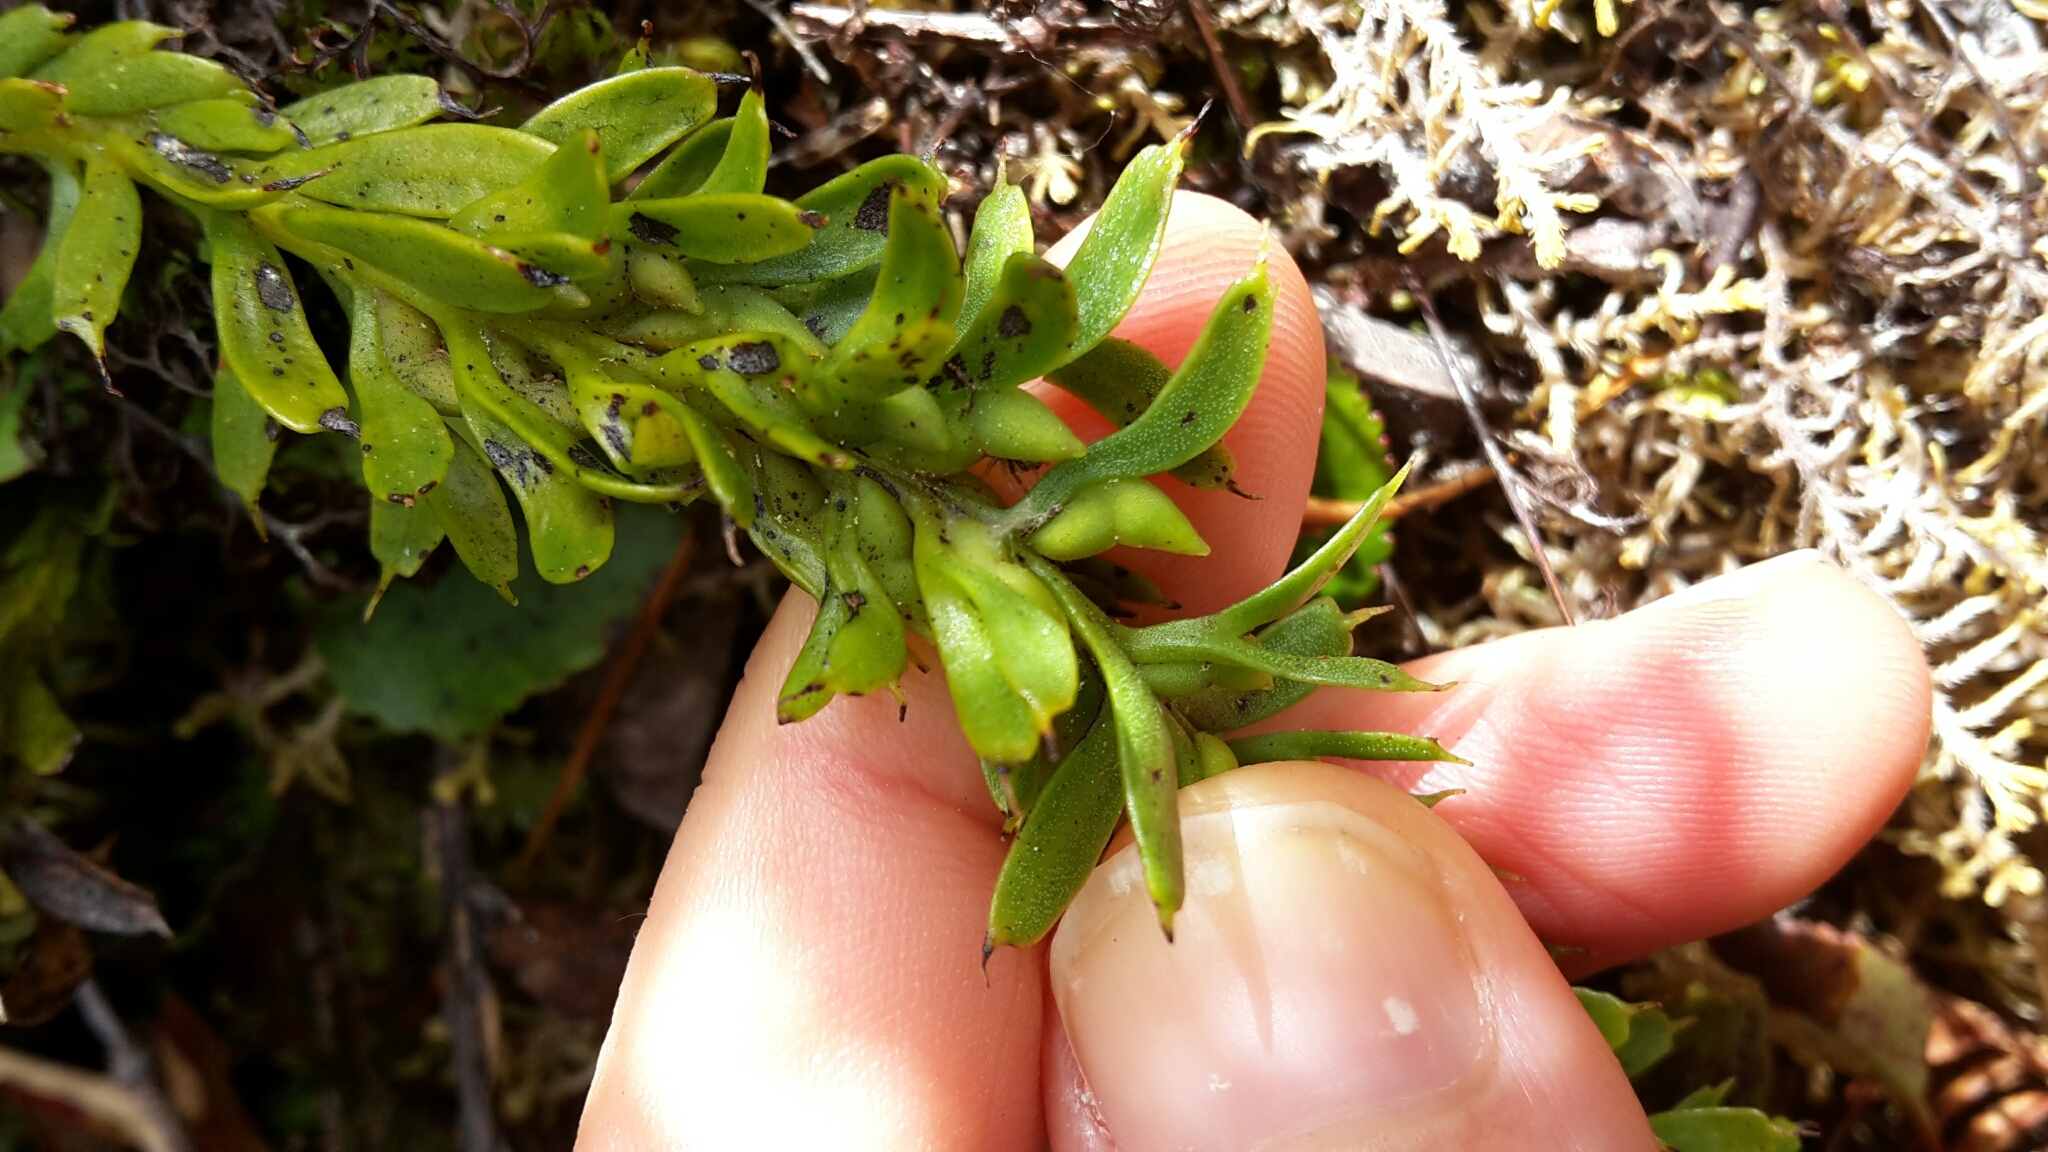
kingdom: Plantae
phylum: Tracheophyta
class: Polypodiopsida
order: Psilotales
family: Psilotaceae
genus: Tmesipteris
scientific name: Tmesipteris tannensis
